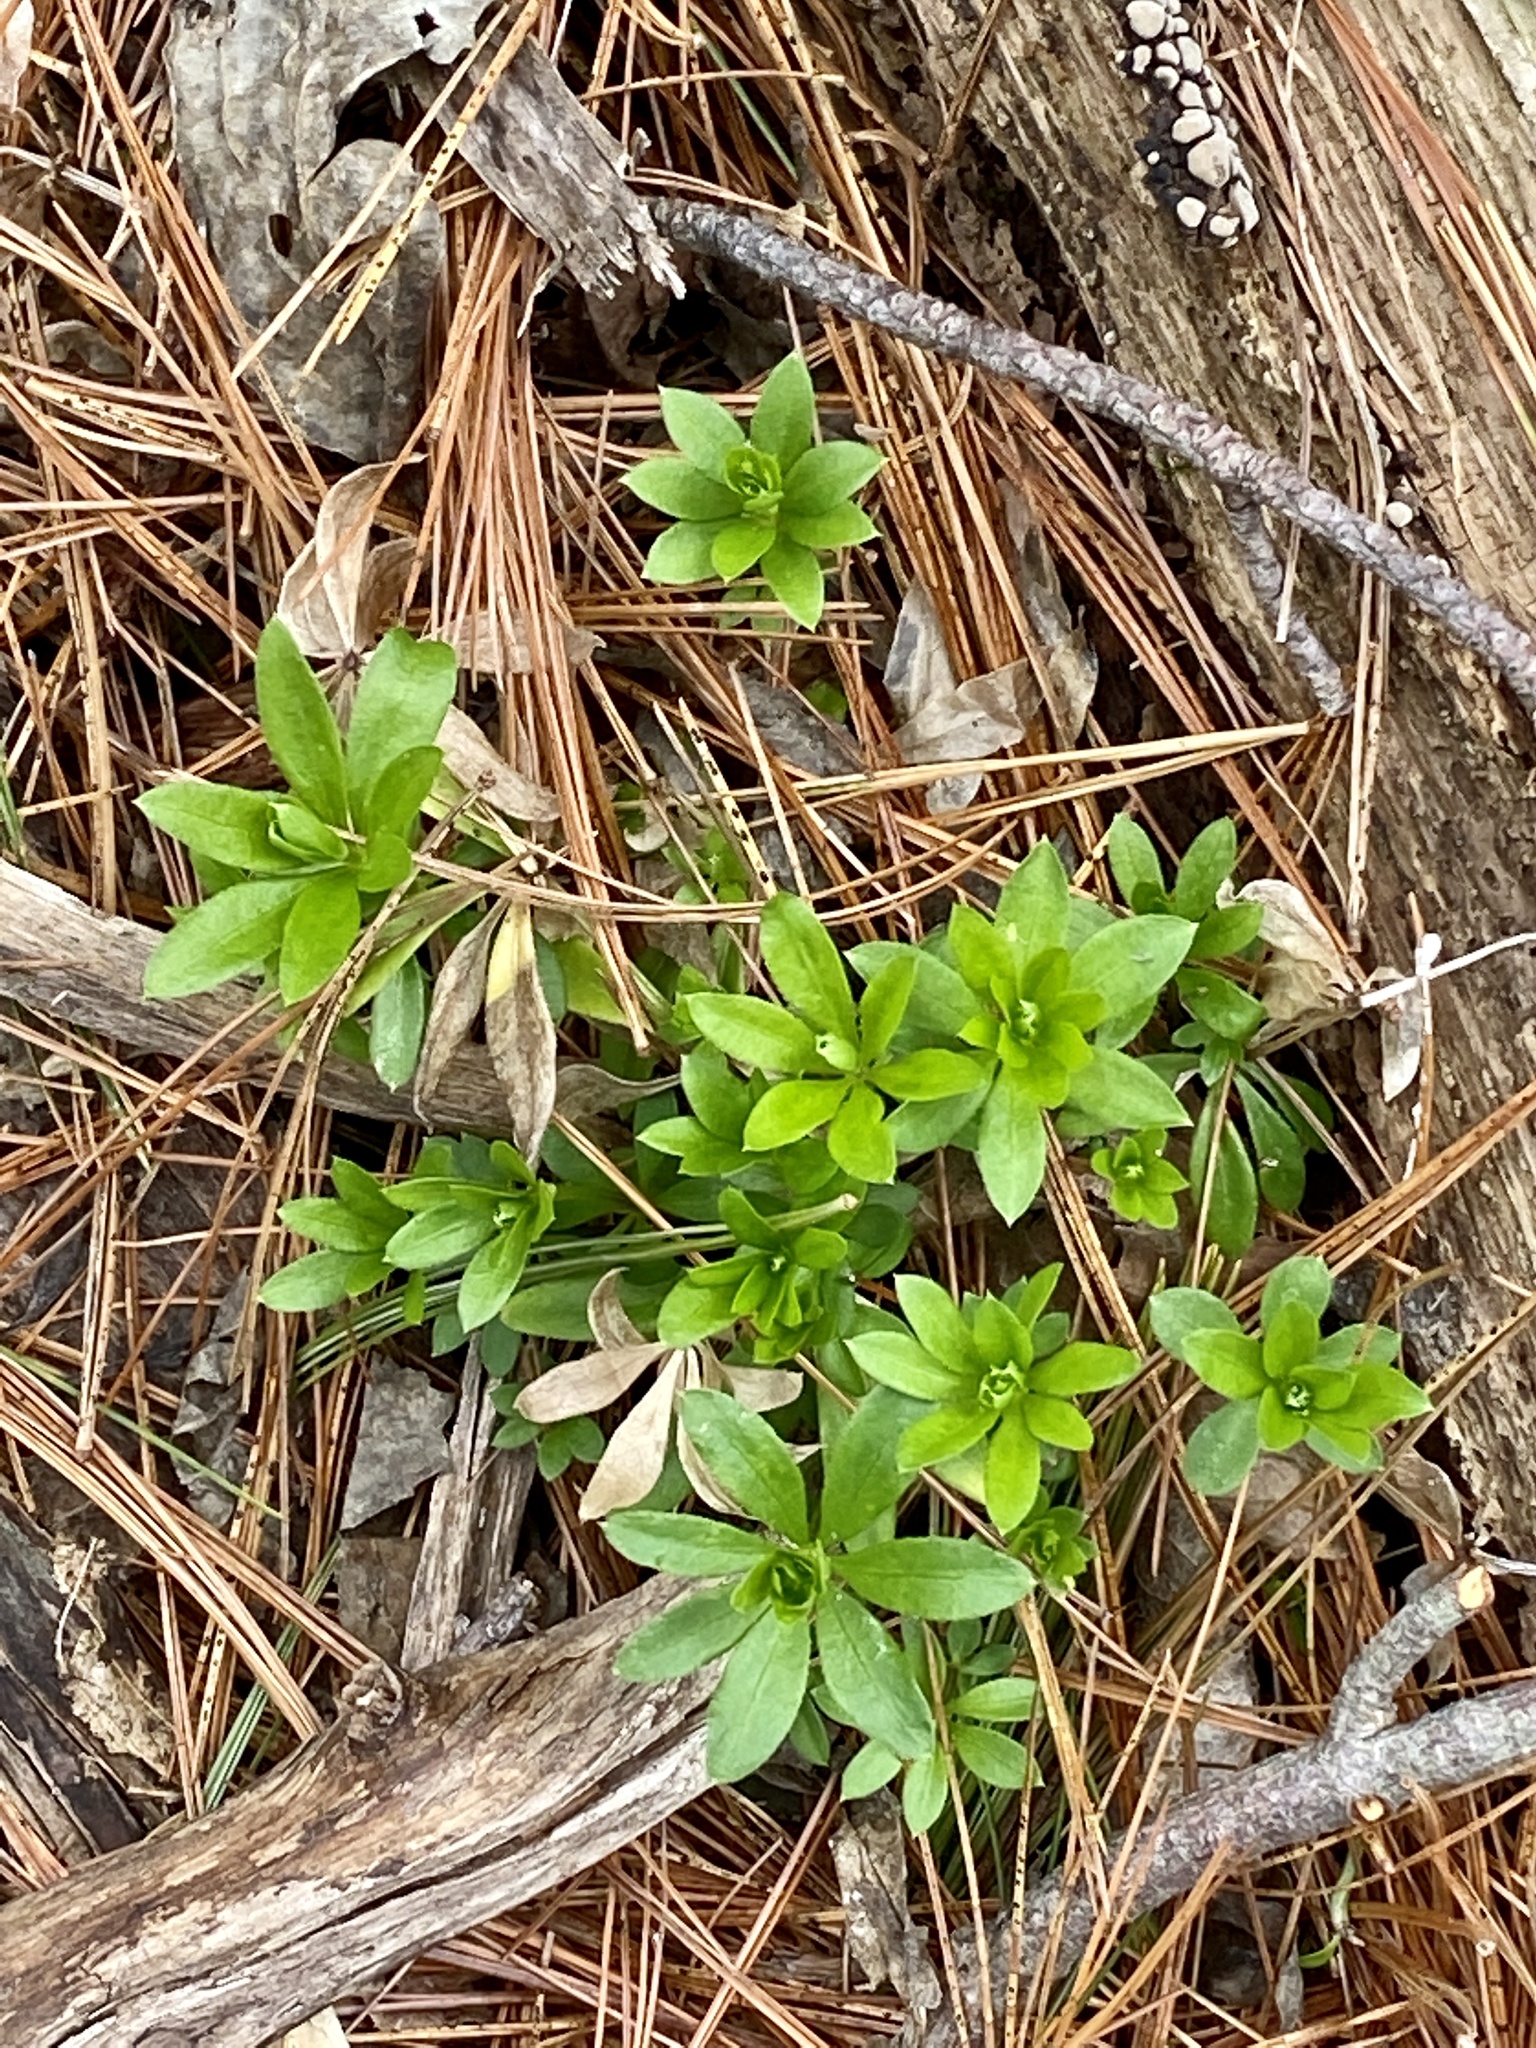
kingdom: Plantae
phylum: Tracheophyta
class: Magnoliopsida
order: Gentianales
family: Rubiaceae
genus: Galium
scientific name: Galium odoratum
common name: Sweet woodruff
